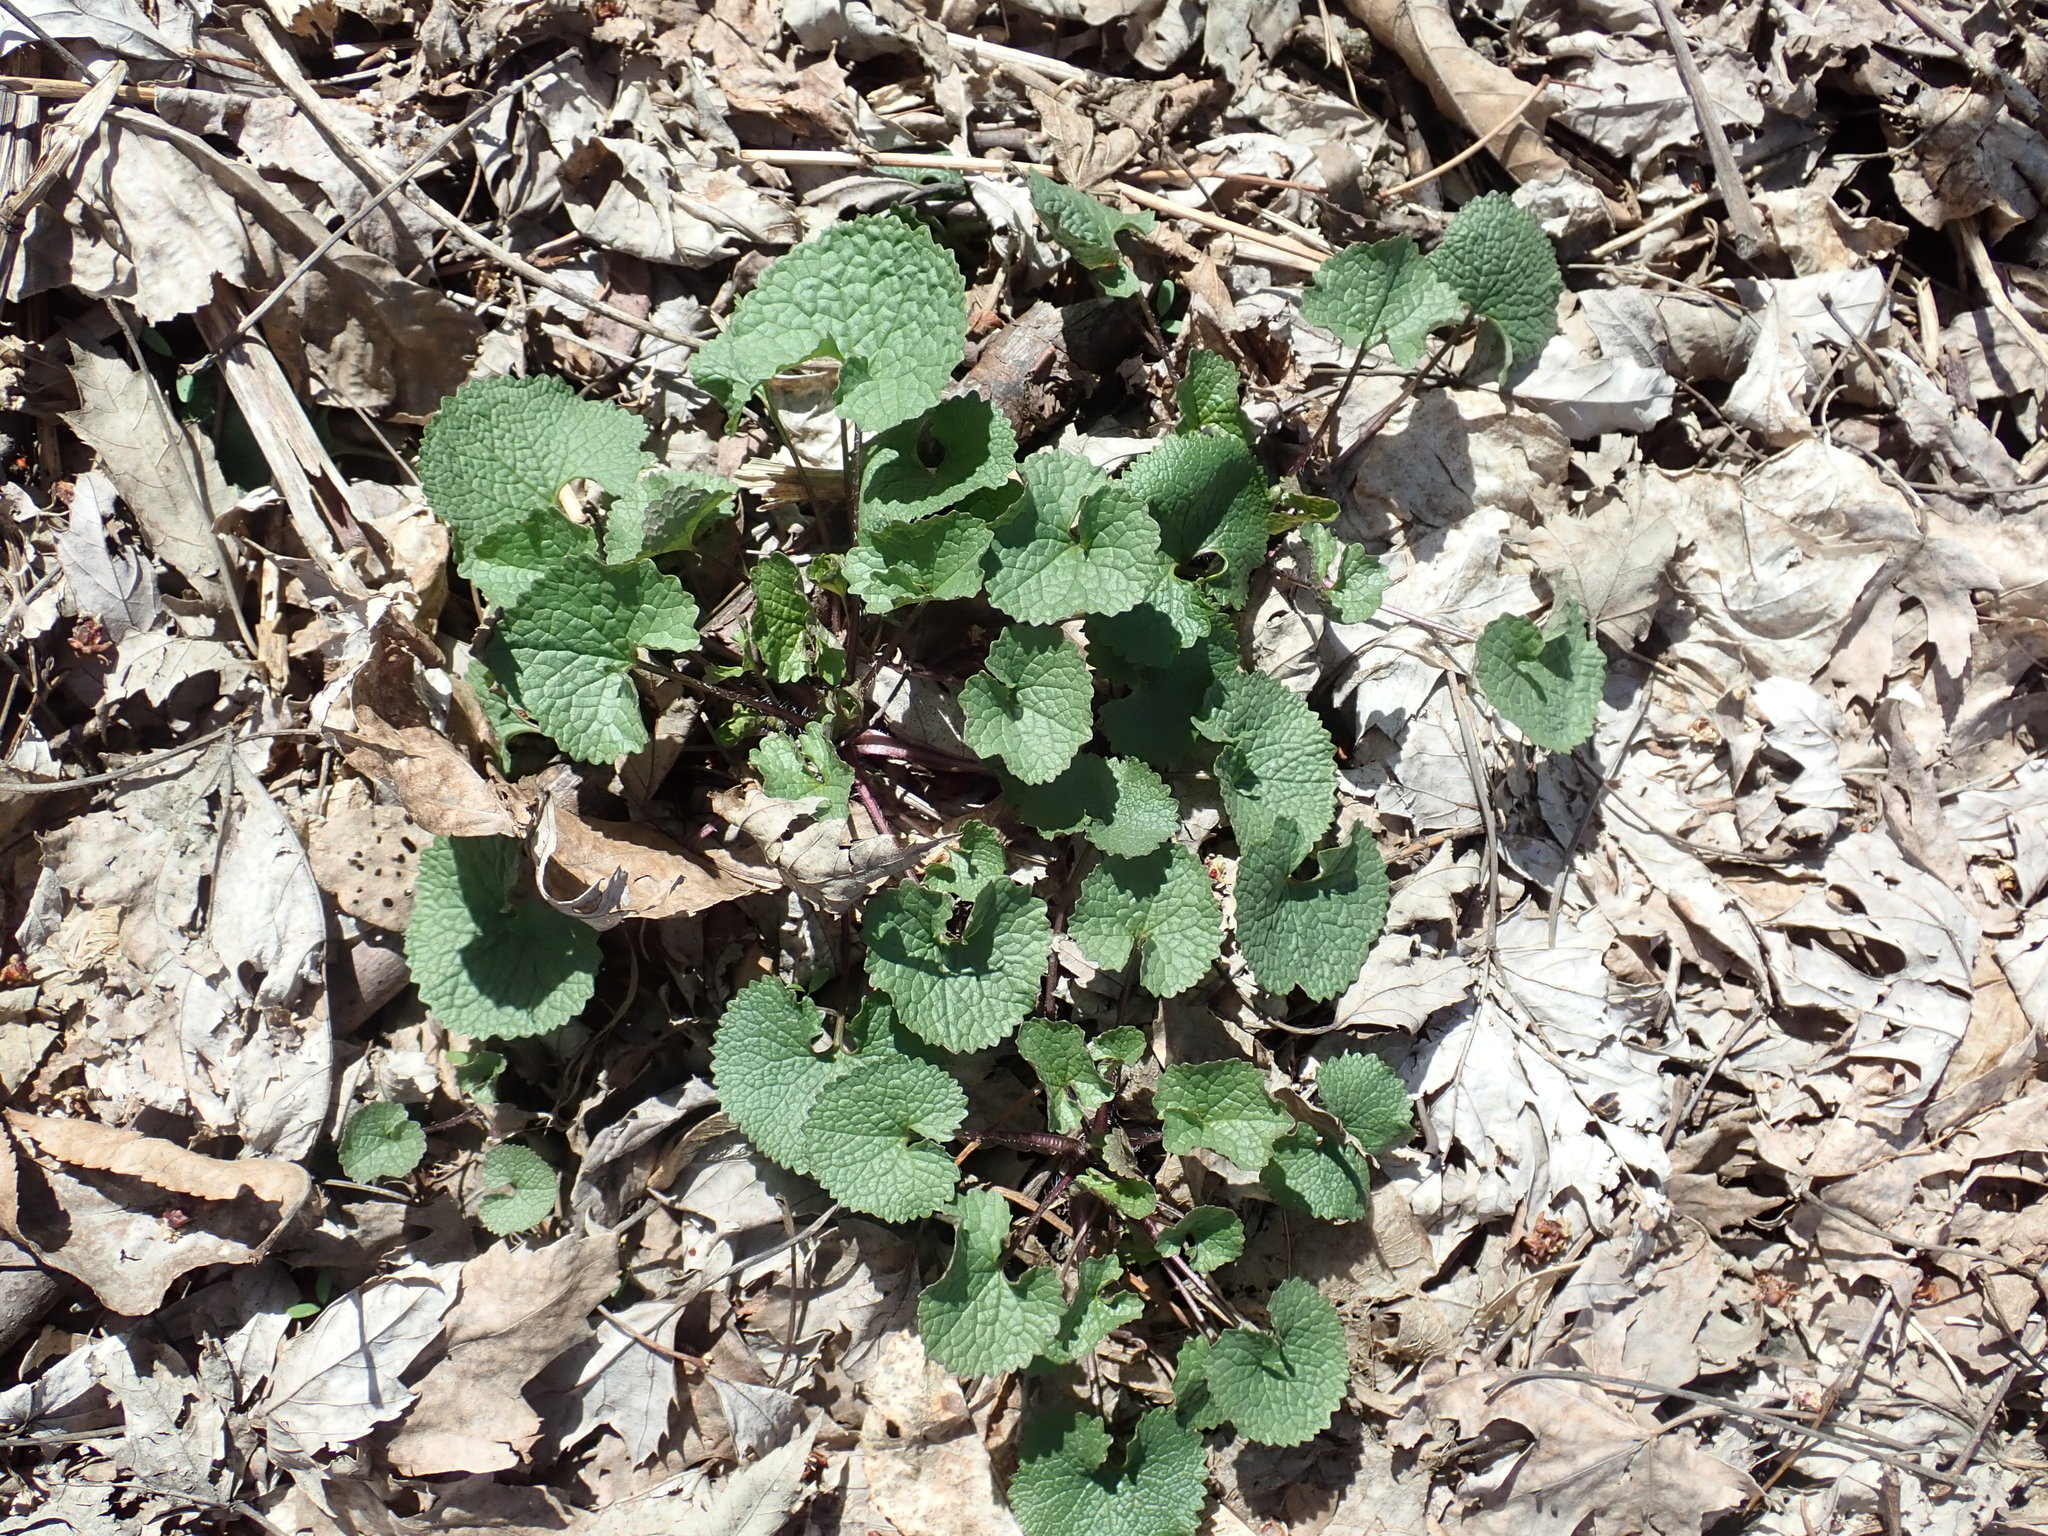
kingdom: Plantae
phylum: Tracheophyta
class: Magnoliopsida
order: Brassicales
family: Brassicaceae
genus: Alliaria
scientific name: Alliaria petiolata
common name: Garlic mustard
